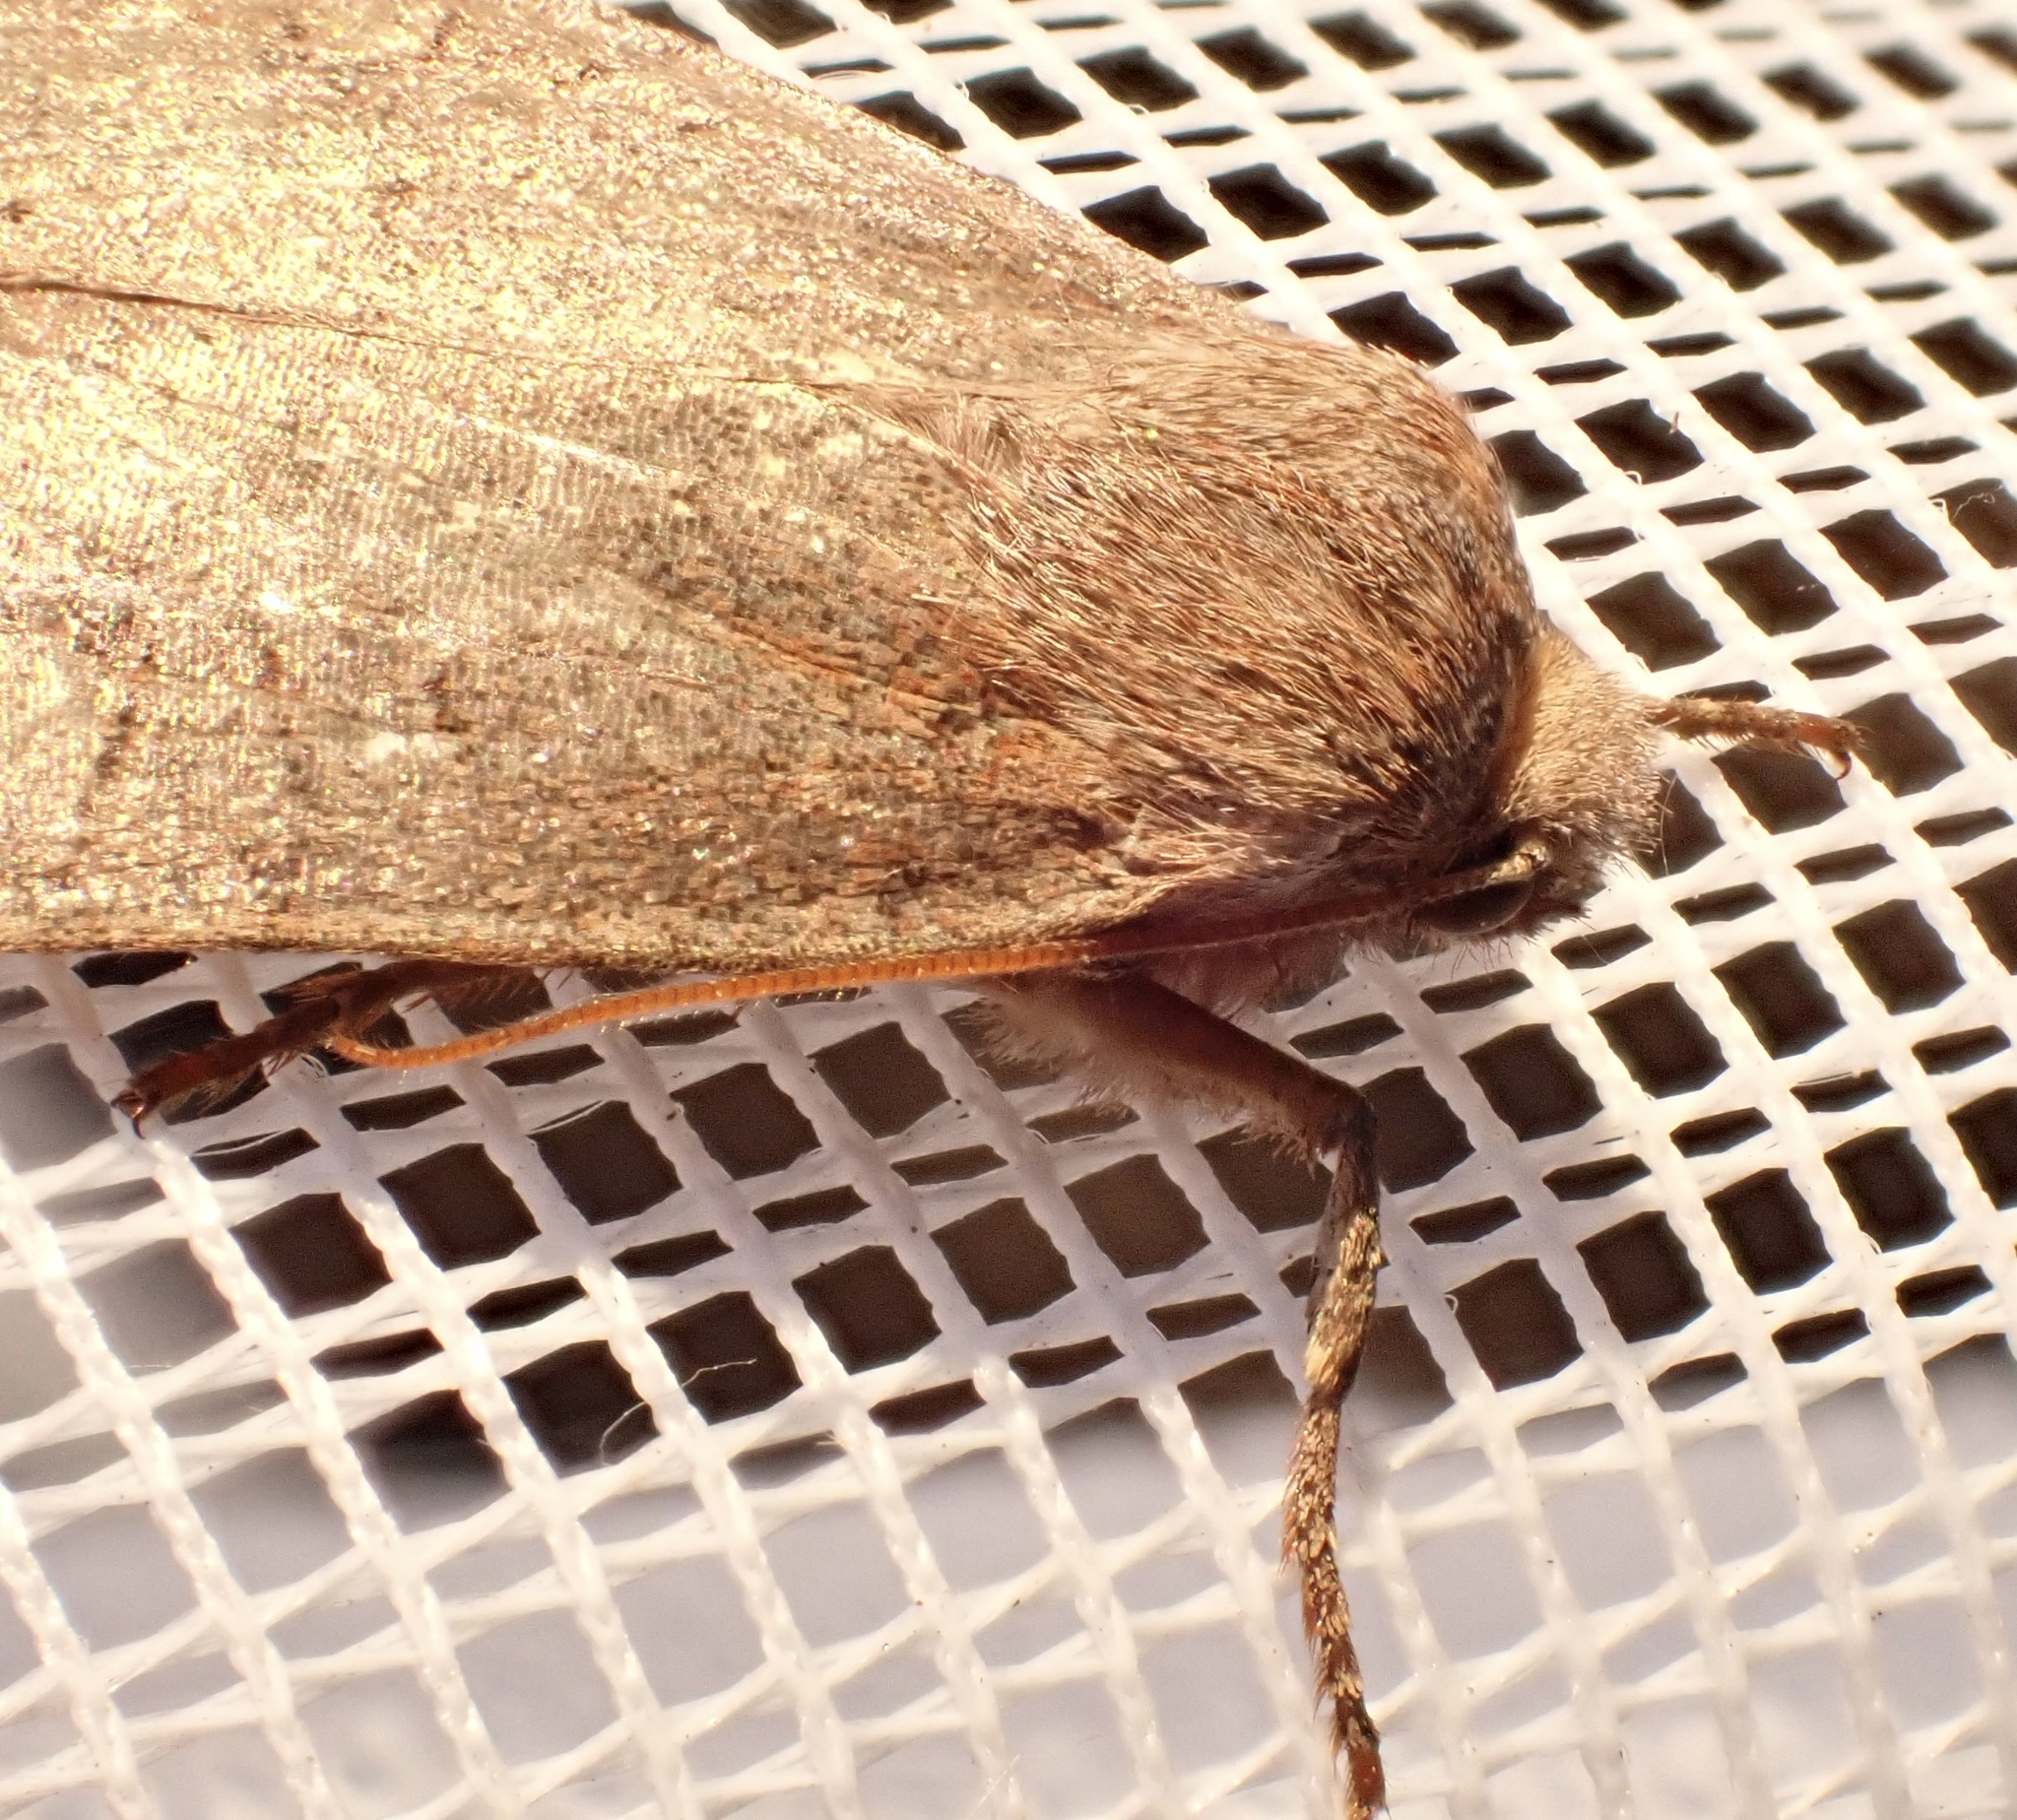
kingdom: Animalia
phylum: Arthropoda
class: Insecta
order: Lepidoptera
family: Noctuidae
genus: Conistra
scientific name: Conistra vaccinii
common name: Chestnut
